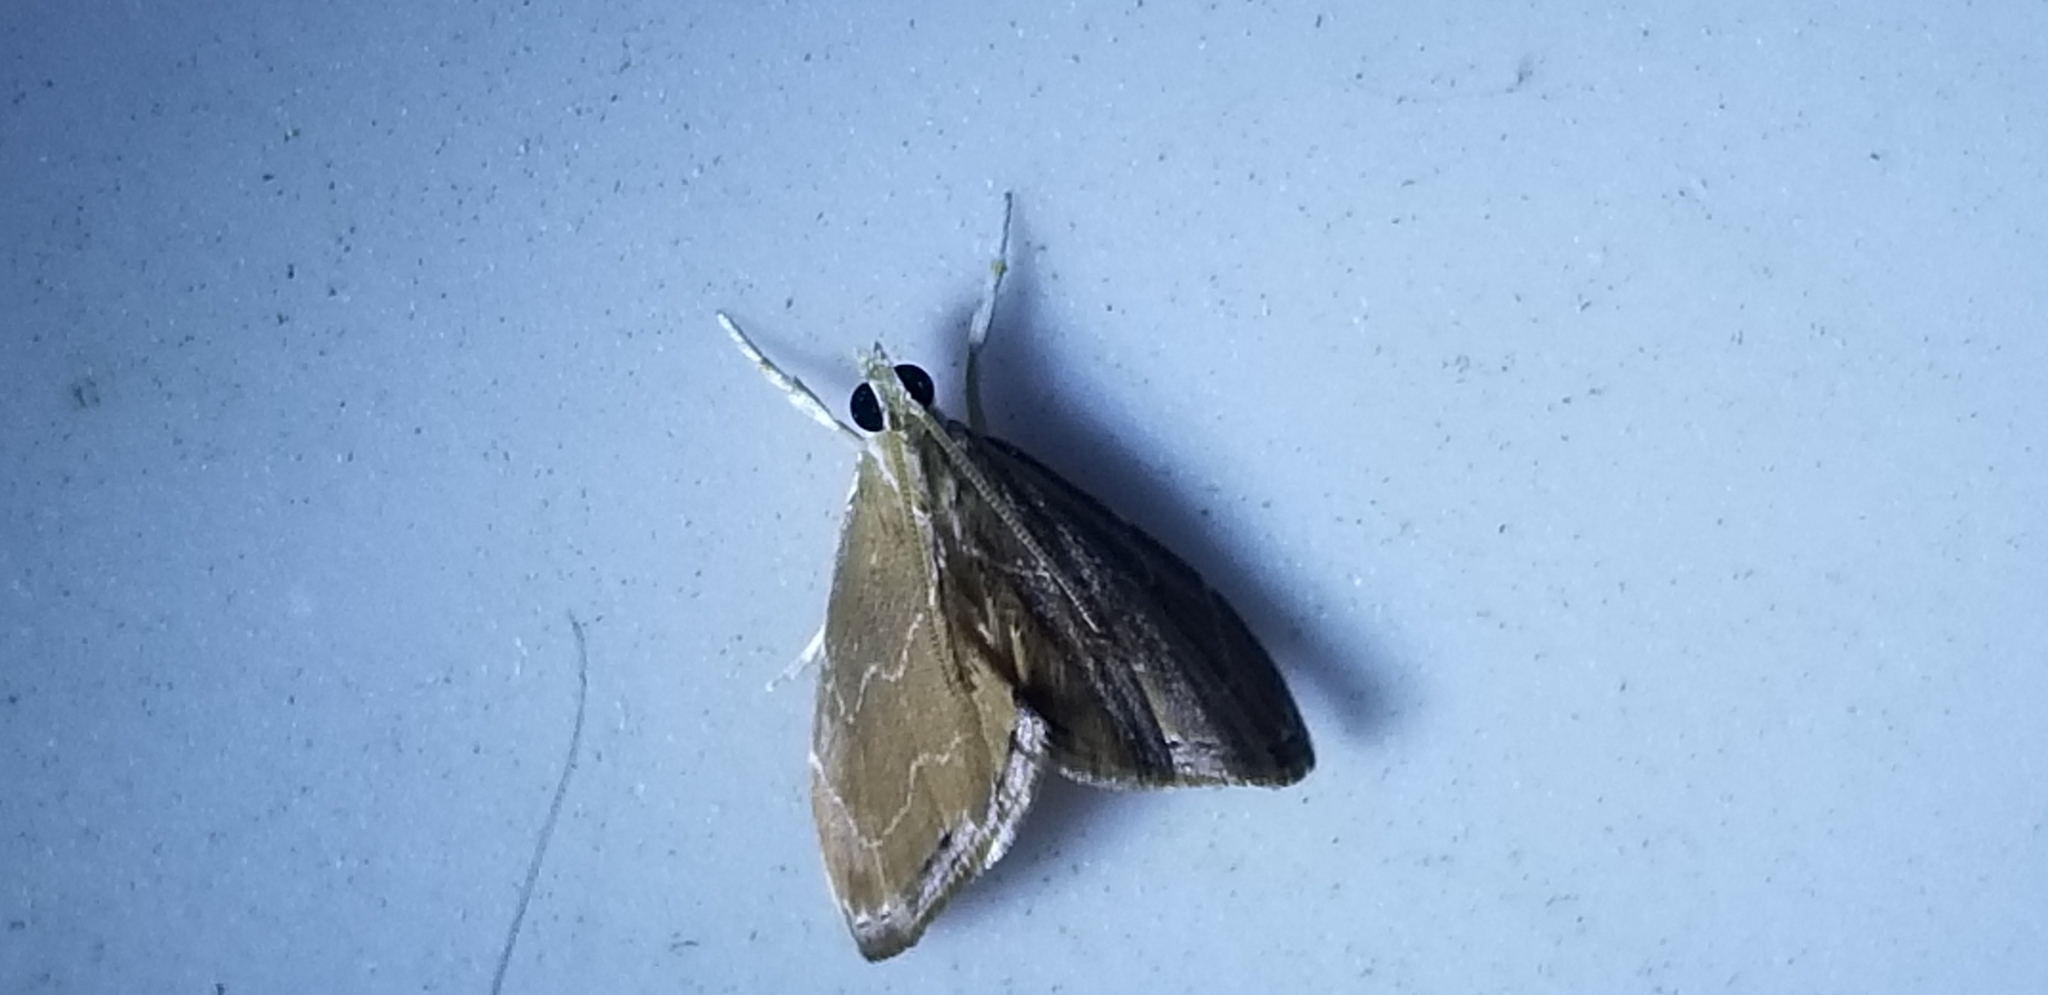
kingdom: Animalia
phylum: Arthropoda
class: Insecta
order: Lepidoptera
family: Crambidae
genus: Glaphyria
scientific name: Glaphyria peremptalis
